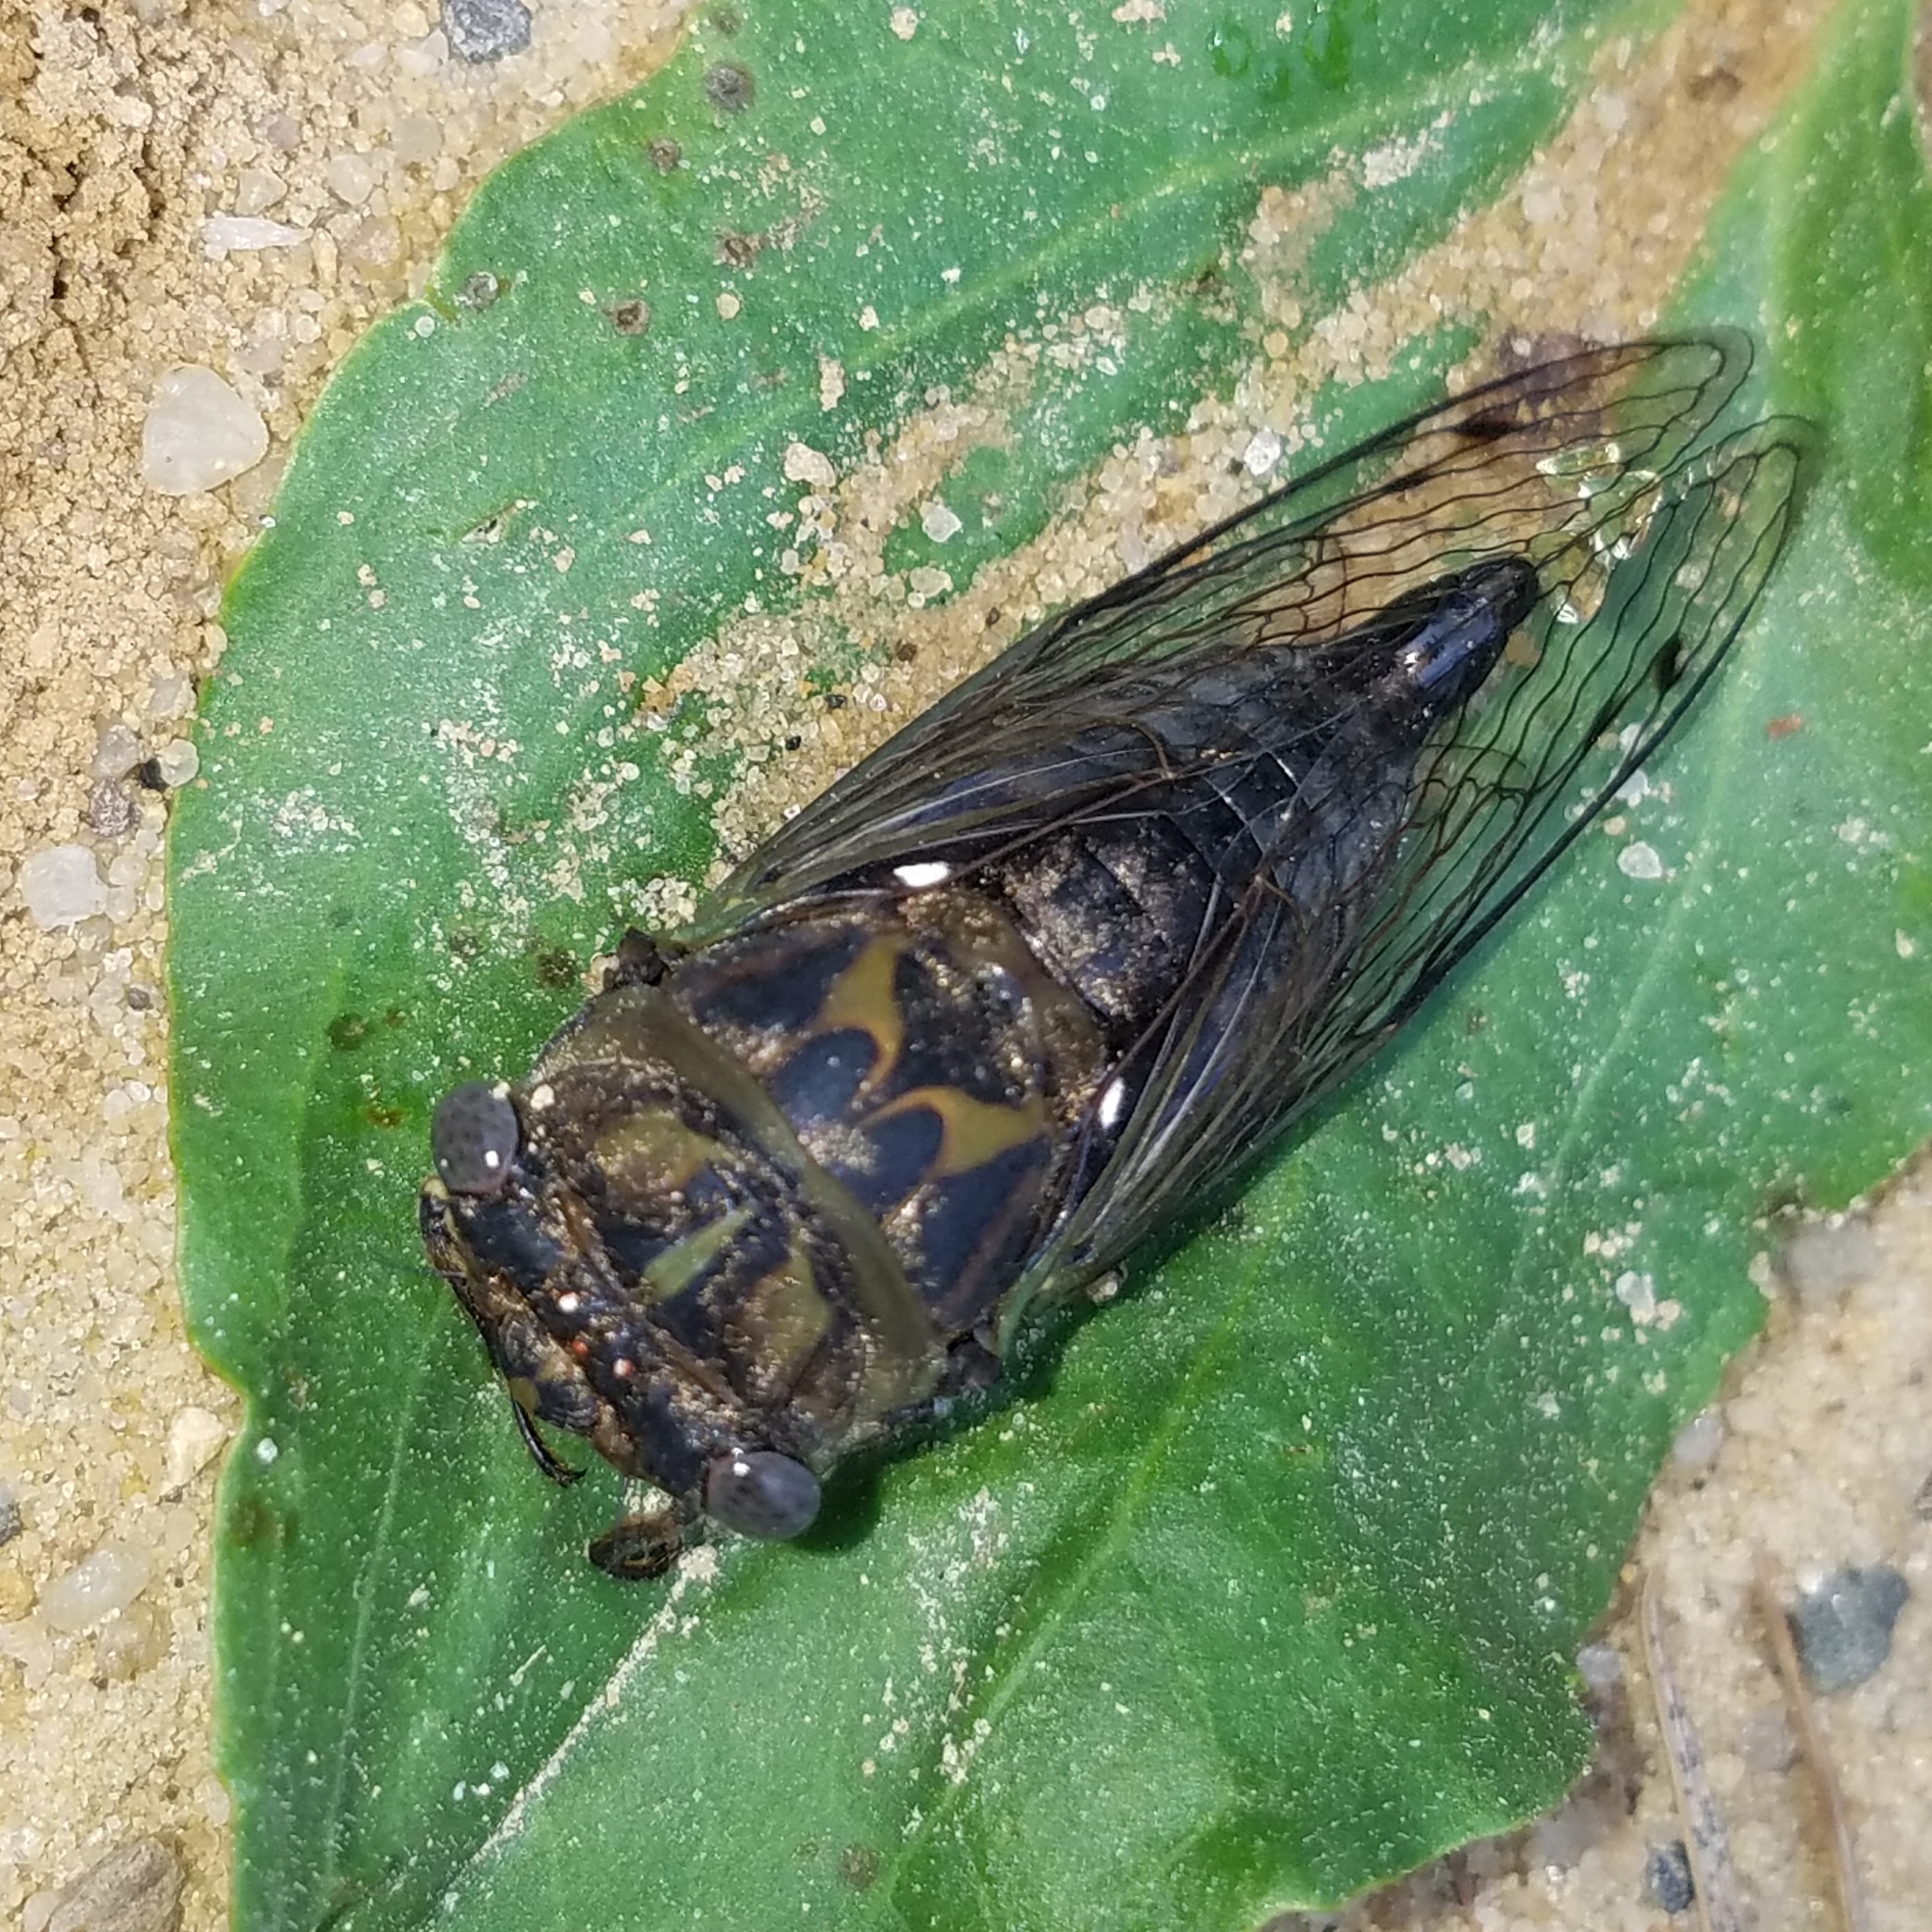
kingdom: Animalia
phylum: Arthropoda
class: Insecta
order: Hemiptera
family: Cicadidae
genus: Neotibicen
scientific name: Neotibicen canicularis
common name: God-day cicada
